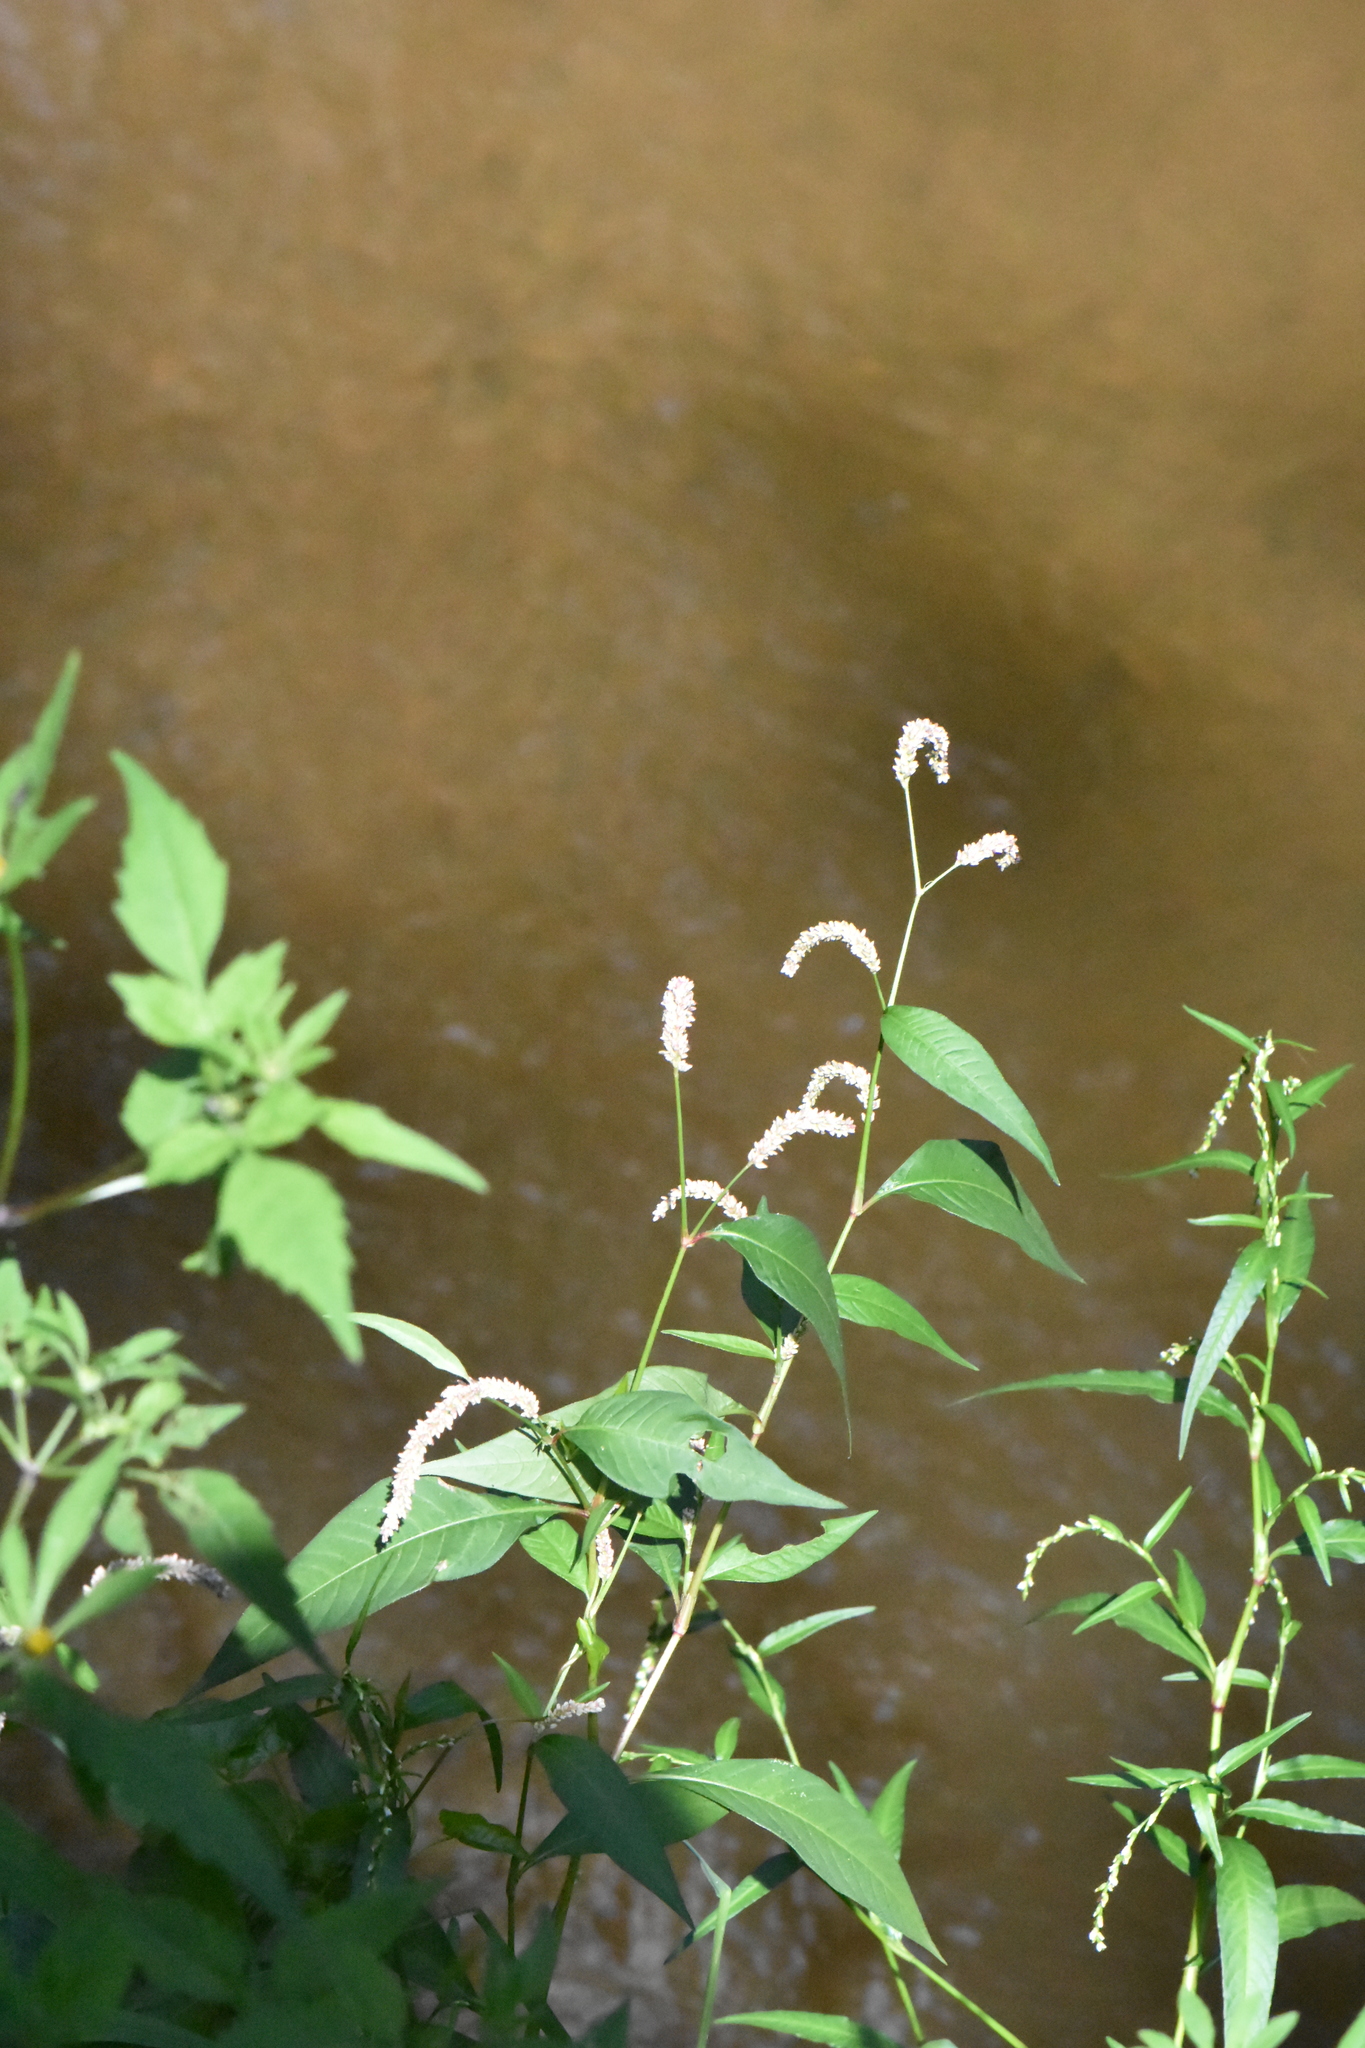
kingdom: Plantae
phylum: Tracheophyta
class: Magnoliopsida
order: Caryophyllales
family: Polygonaceae
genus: Persicaria
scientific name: Persicaria lapathifolia
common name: Curlytop knotweed
